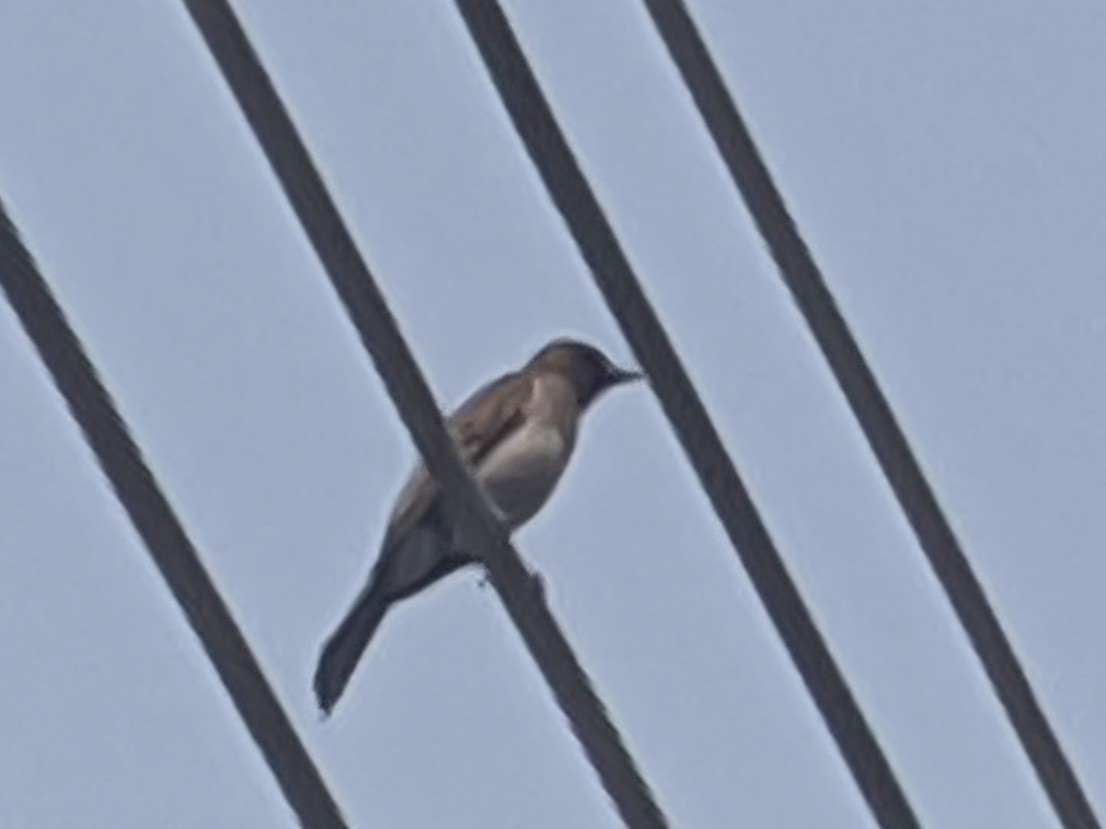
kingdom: Animalia
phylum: Chordata
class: Aves
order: Passeriformes
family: Pycnonotidae
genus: Pycnonotus
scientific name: Pycnonotus barbatus
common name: Common bulbul
